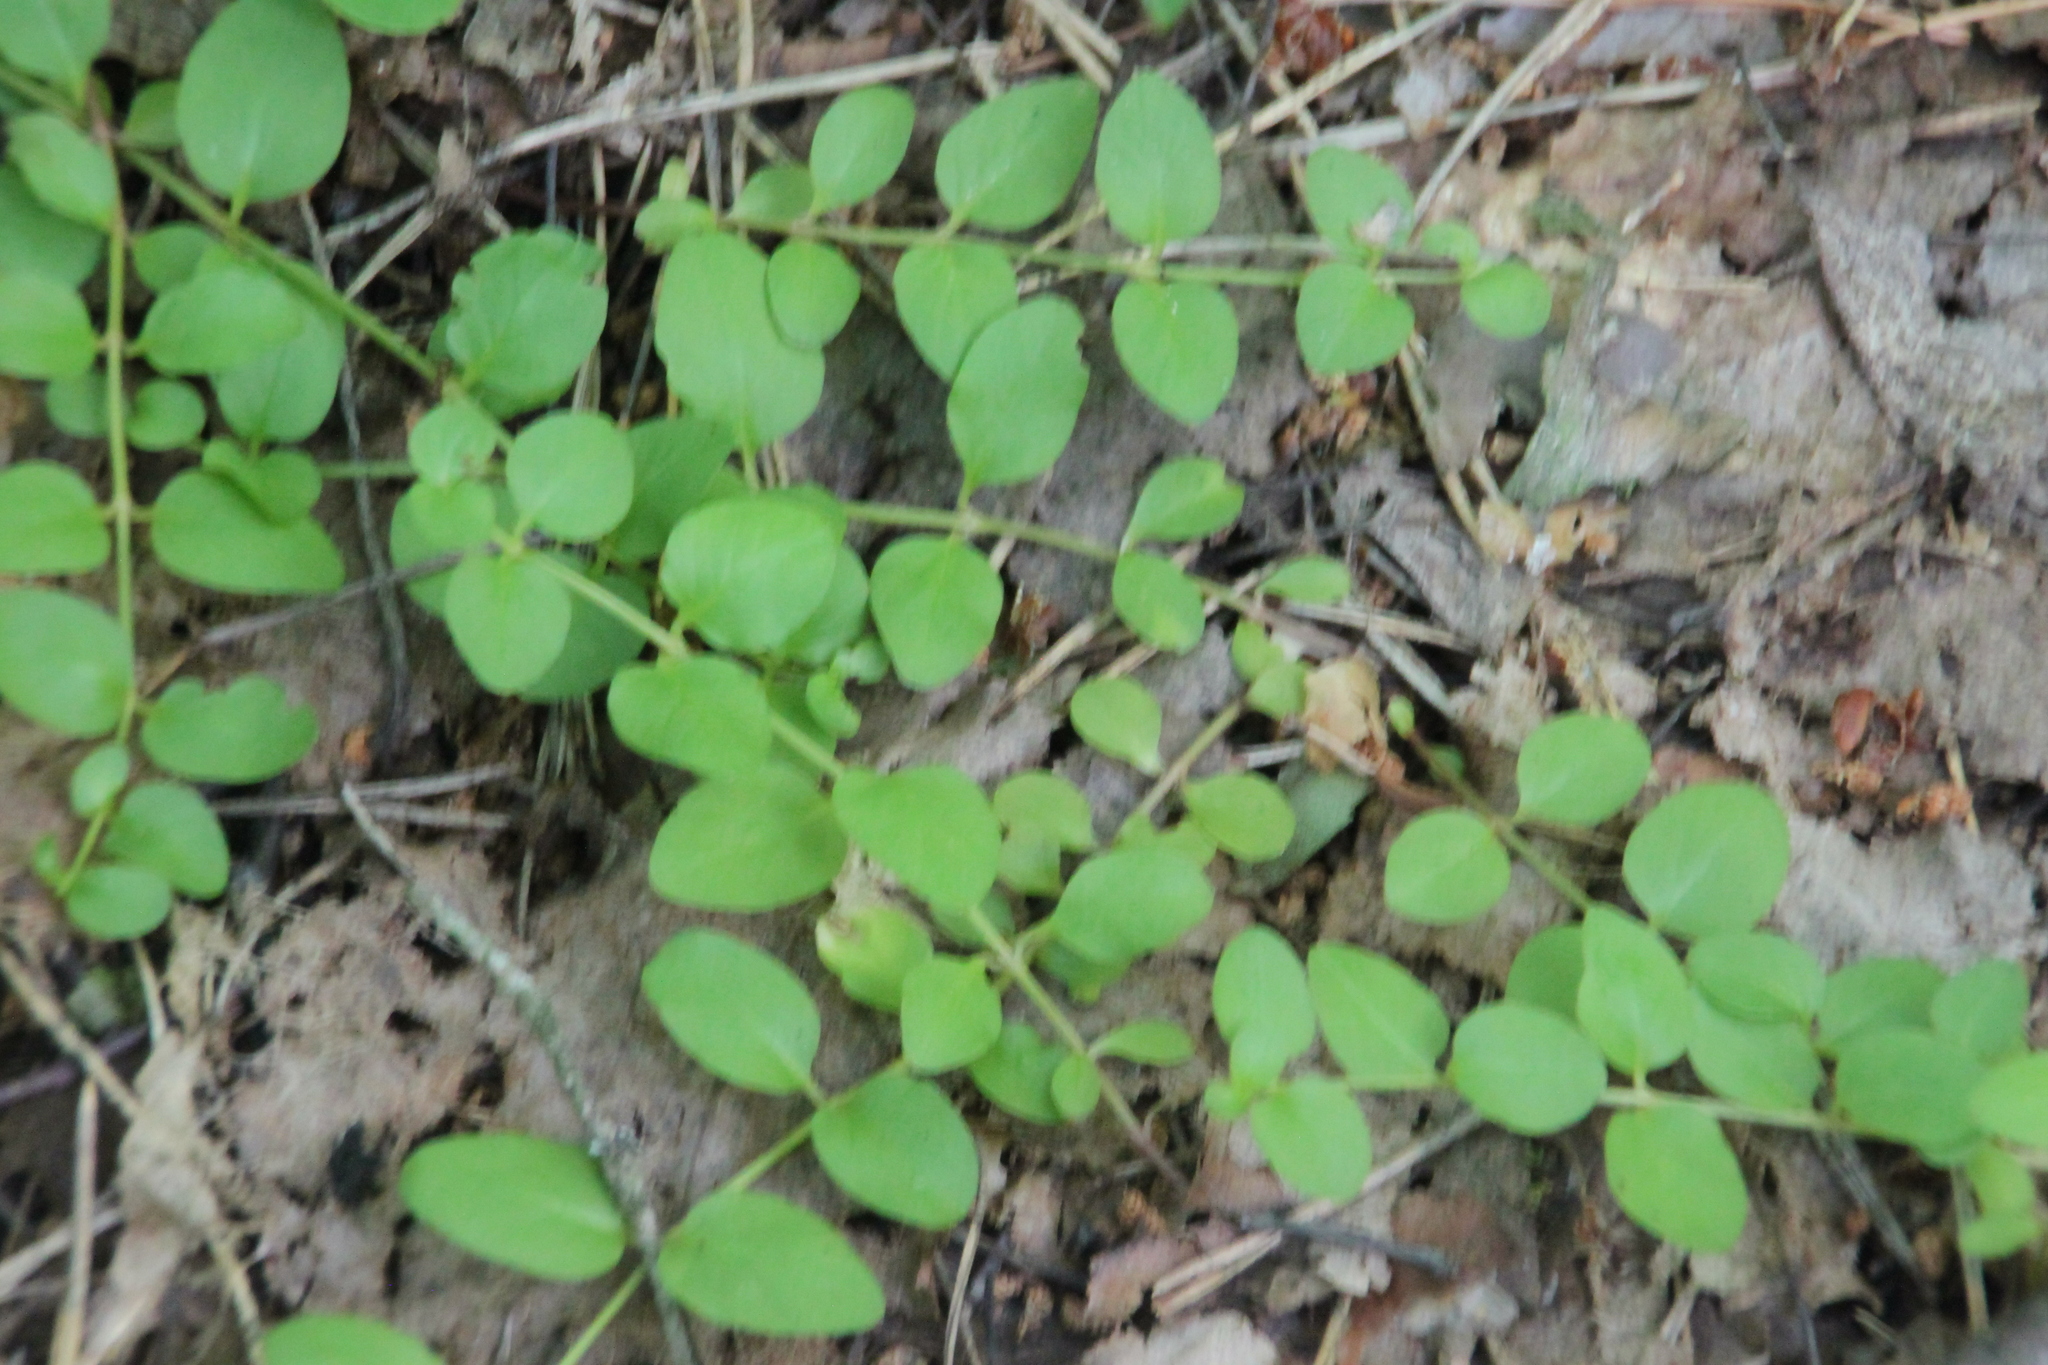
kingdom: Plantae
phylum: Tracheophyta
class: Magnoliopsida
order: Ericales
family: Primulaceae
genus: Lysimachia
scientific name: Lysimachia nummularia
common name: Moneywort
